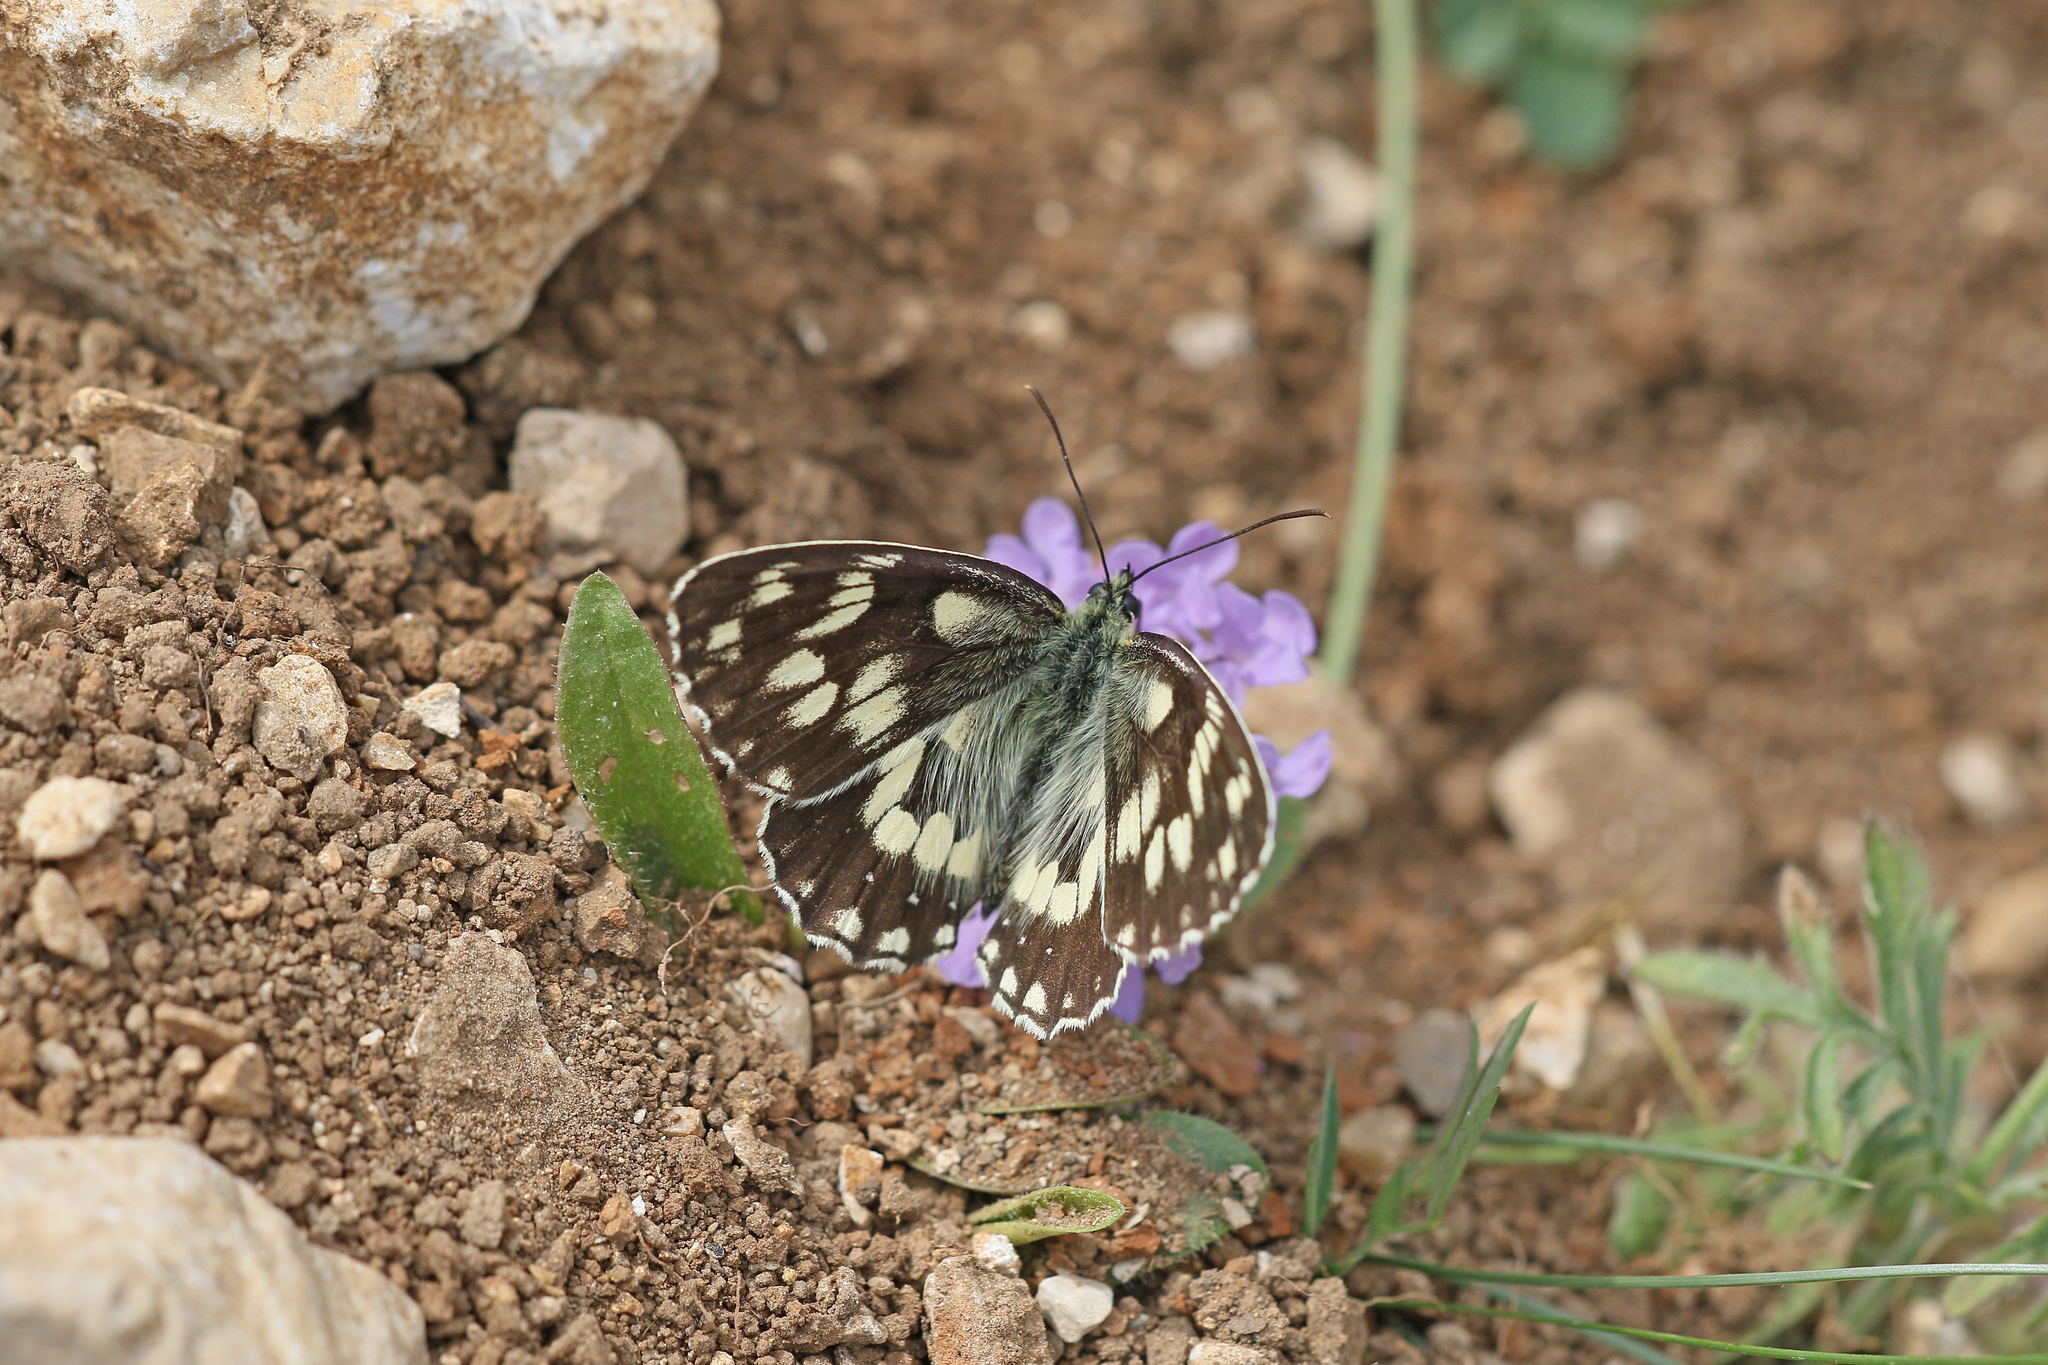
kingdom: Animalia
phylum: Arthropoda
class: Insecta
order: Lepidoptera
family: Nymphalidae
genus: Melanargia
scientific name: Melanargia galathea
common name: Marbled white
